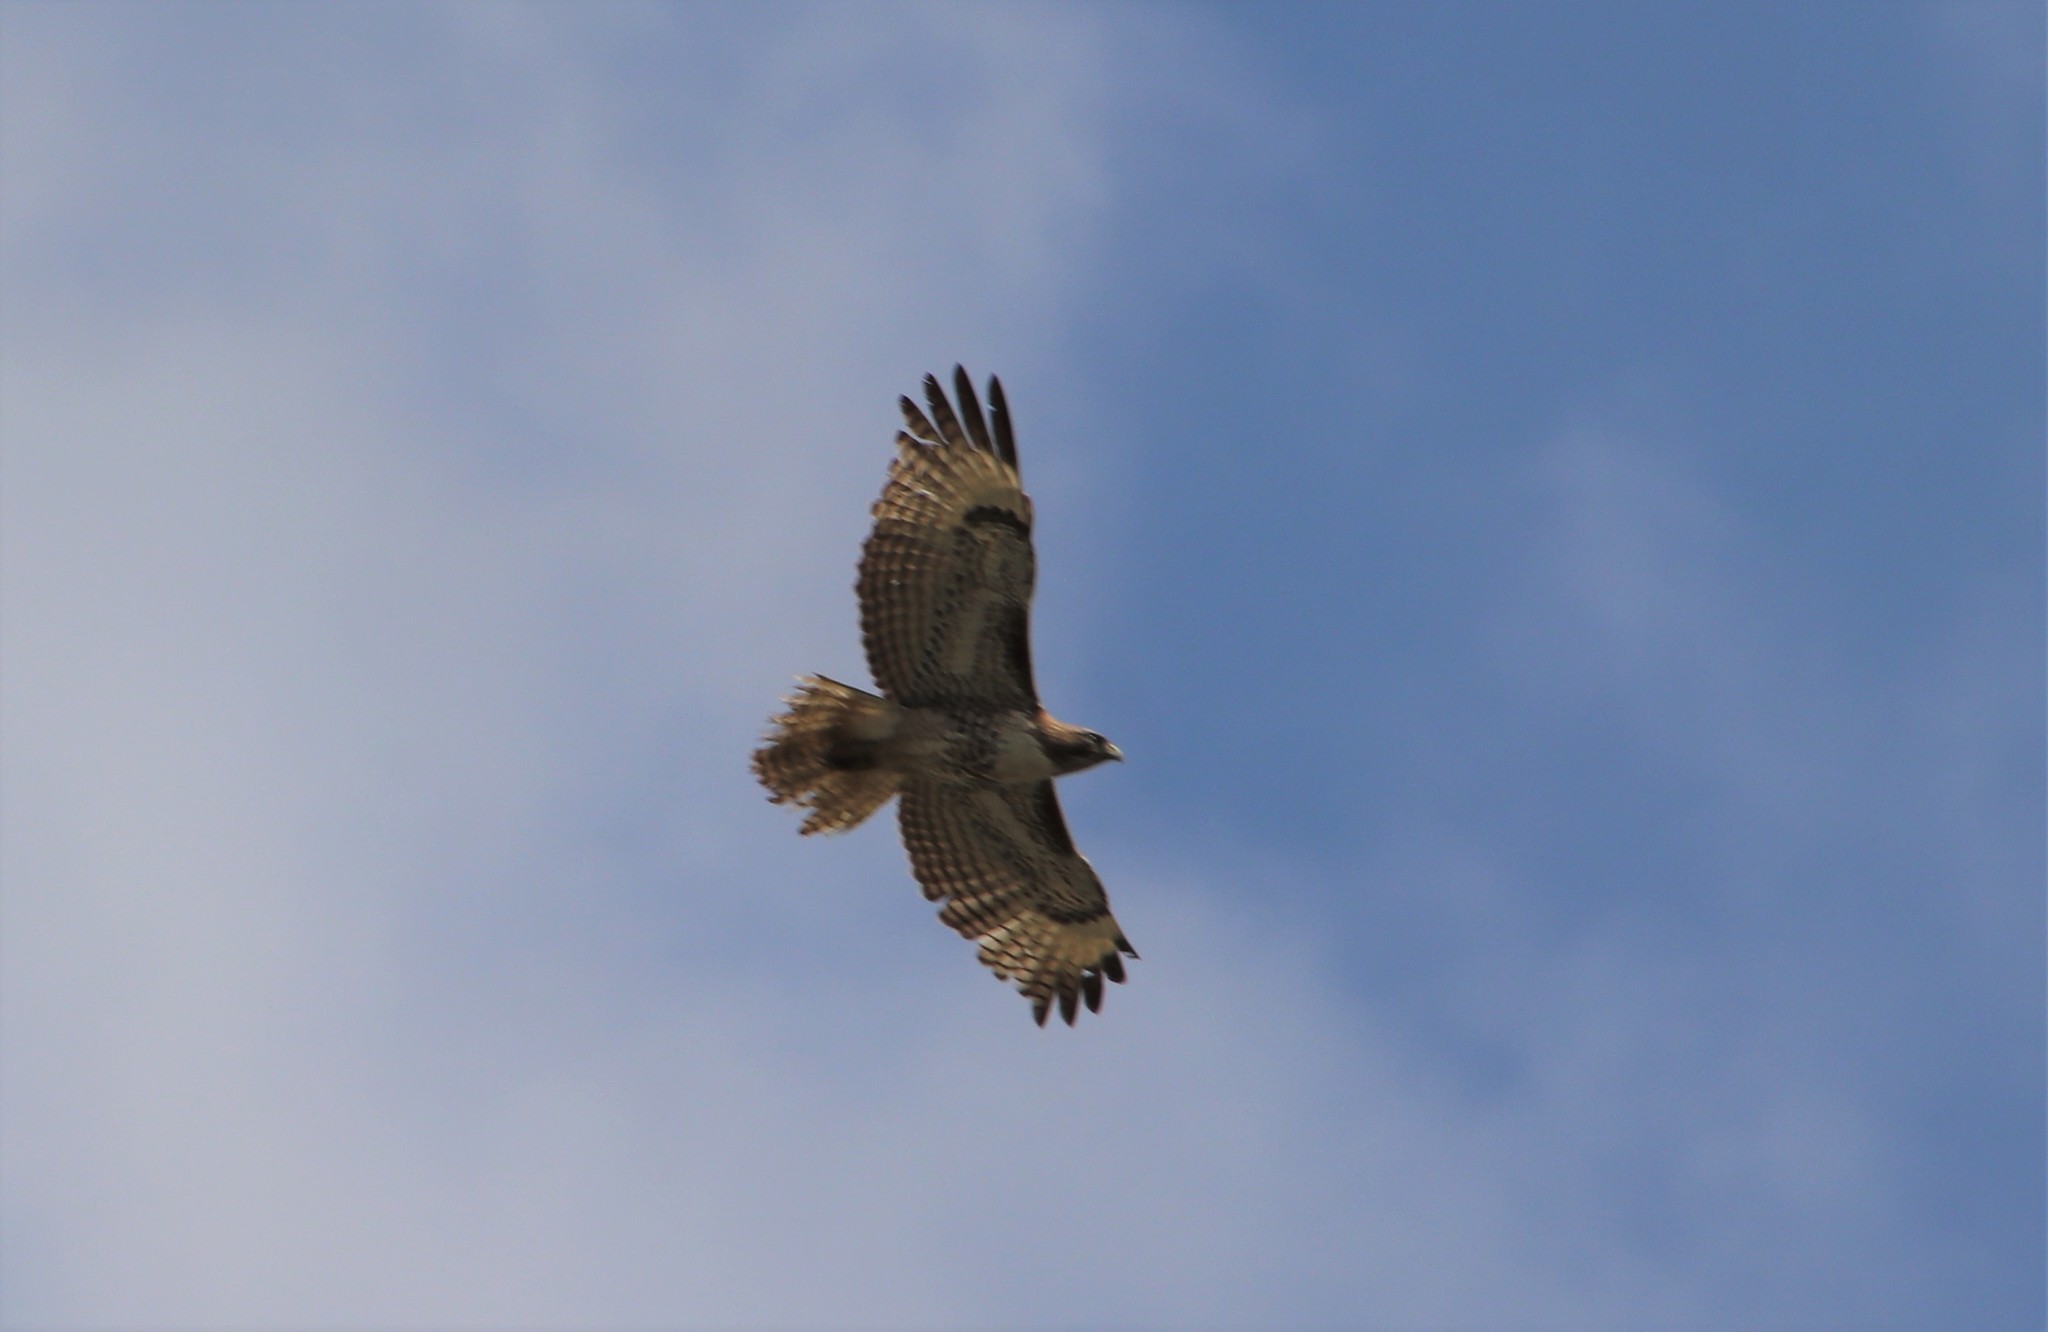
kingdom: Animalia
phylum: Chordata
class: Aves
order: Accipitriformes
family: Accipitridae
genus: Buteo
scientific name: Buteo jamaicensis
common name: Red-tailed hawk
